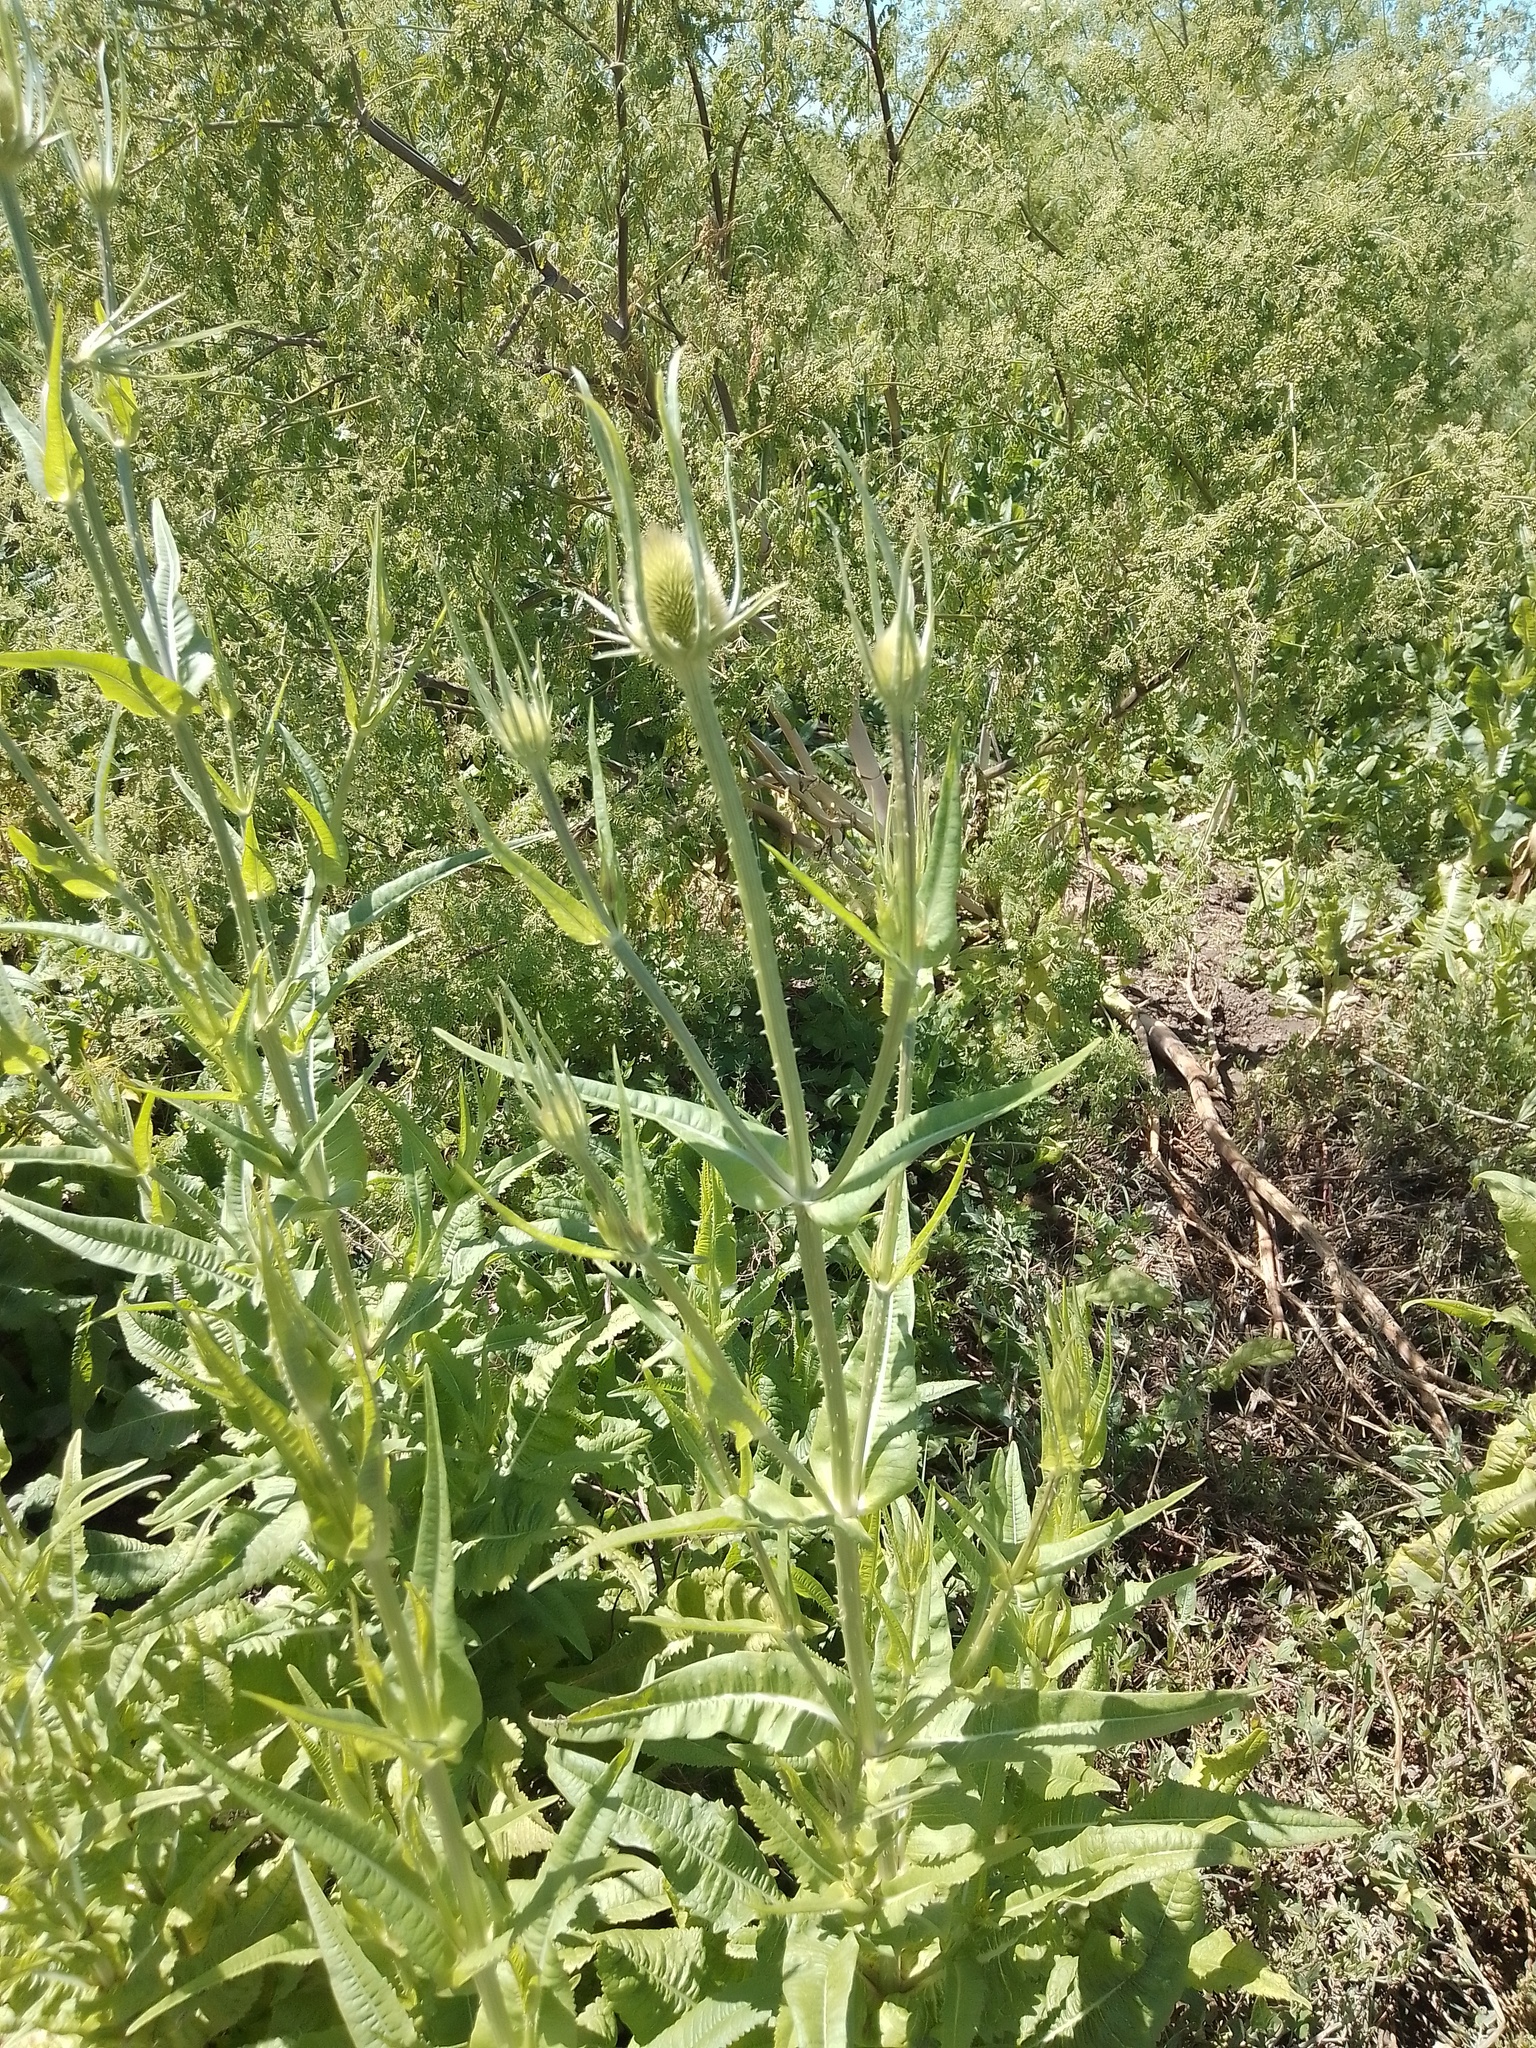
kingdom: Plantae
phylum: Tracheophyta
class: Magnoliopsida
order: Dipsacales
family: Caprifoliaceae
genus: Dipsacus
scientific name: Dipsacus fullonum
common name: Teasel
